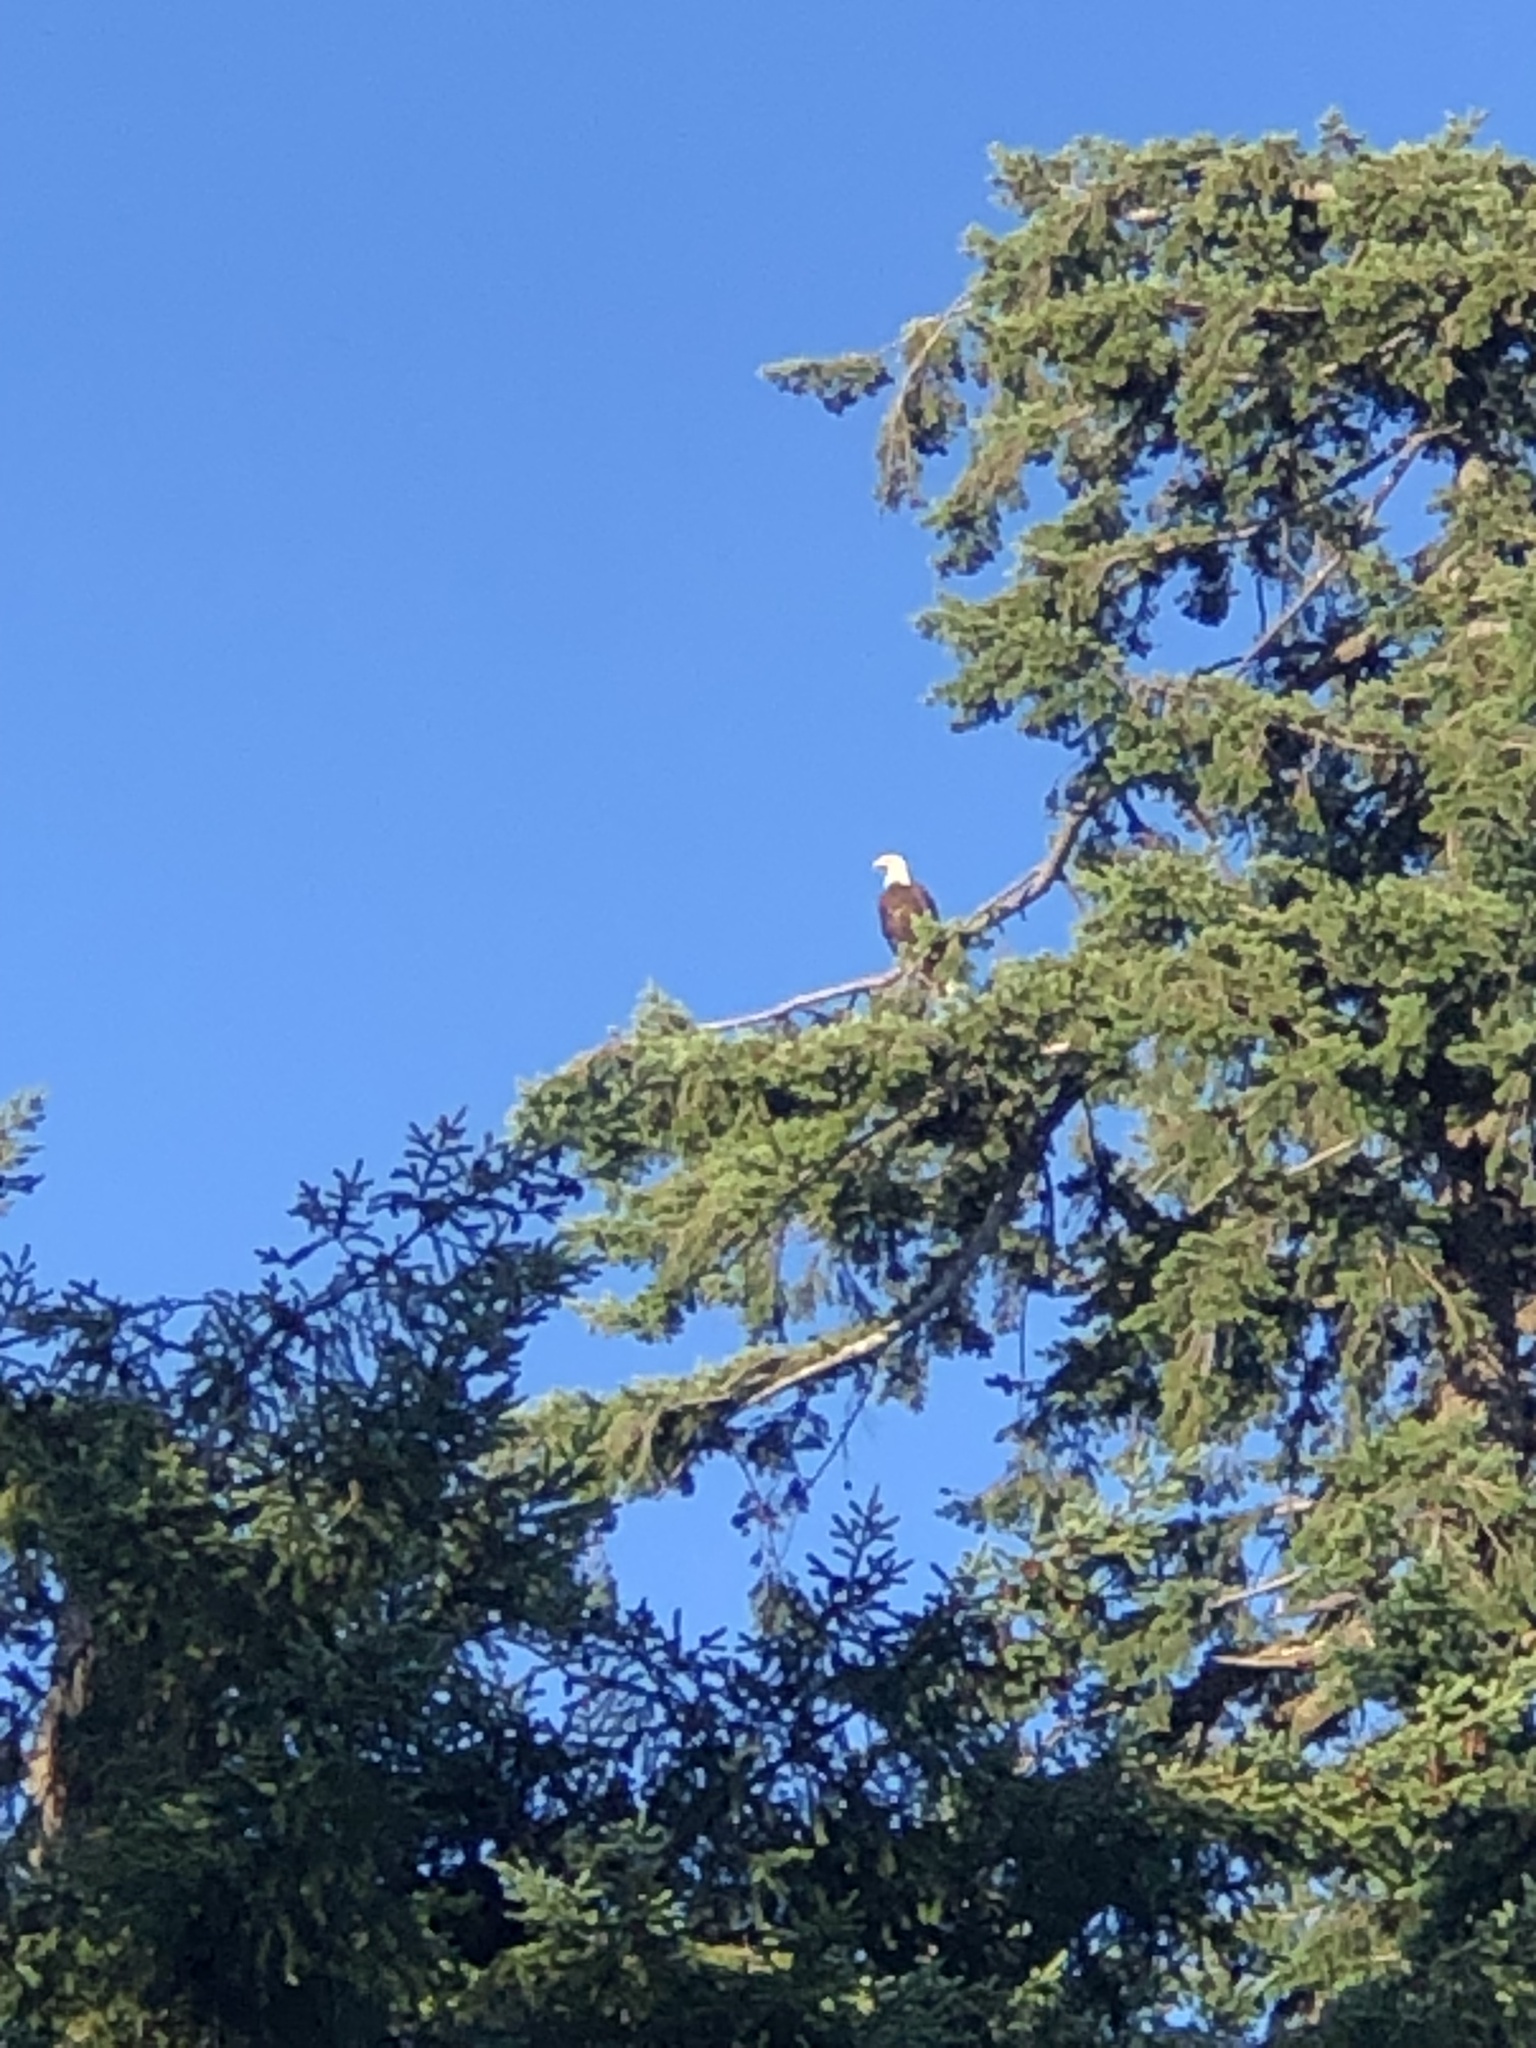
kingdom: Animalia
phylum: Chordata
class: Aves
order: Accipitriformes
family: Accipitridae
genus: Haliaeetus
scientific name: Haliaeetus leucocephalus
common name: Bald eagle
